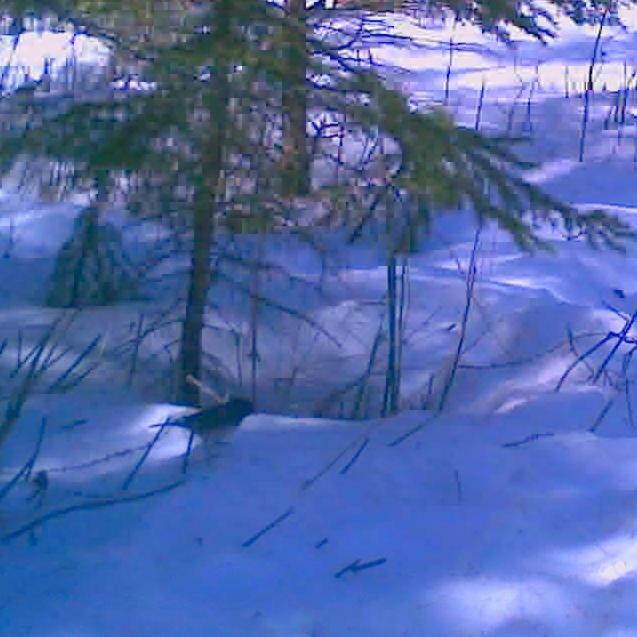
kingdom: Animalia
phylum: Chordata
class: Aves
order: Passeriformes
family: Passerellidae
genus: Junco
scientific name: Junco hyemalis
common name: Dark-eyed junco
